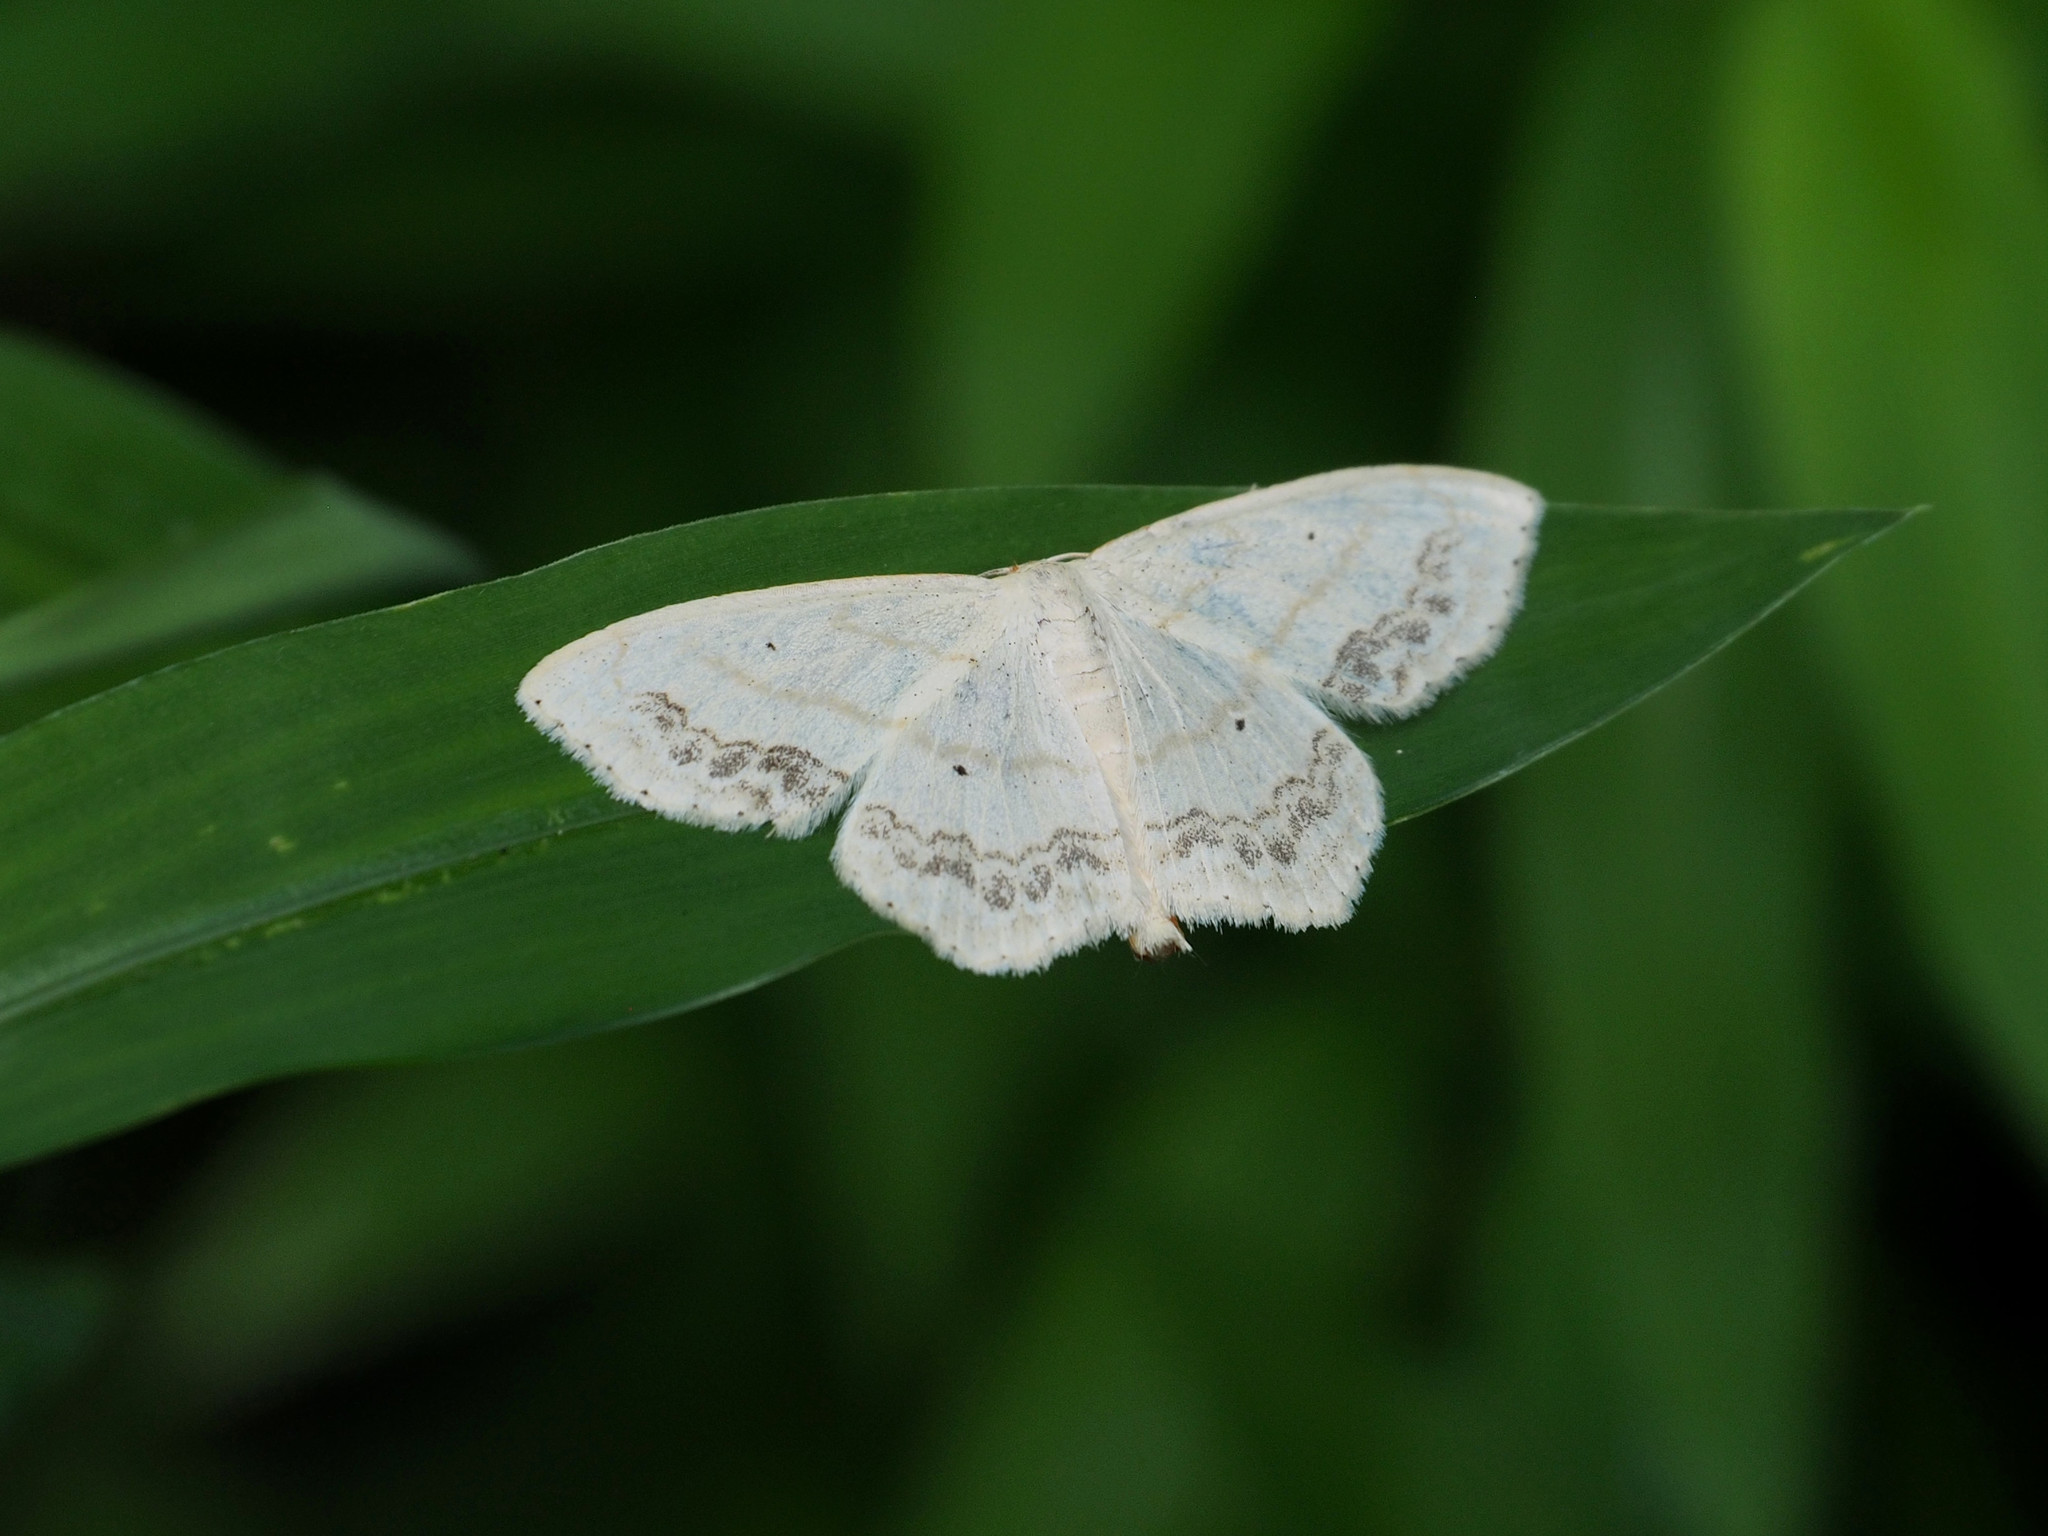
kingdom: Animalia
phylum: Arthropoda
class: Insecta
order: Lepidoptera
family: Geometridae
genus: Scopula
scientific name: Scopula limboundata
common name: Large lace border
